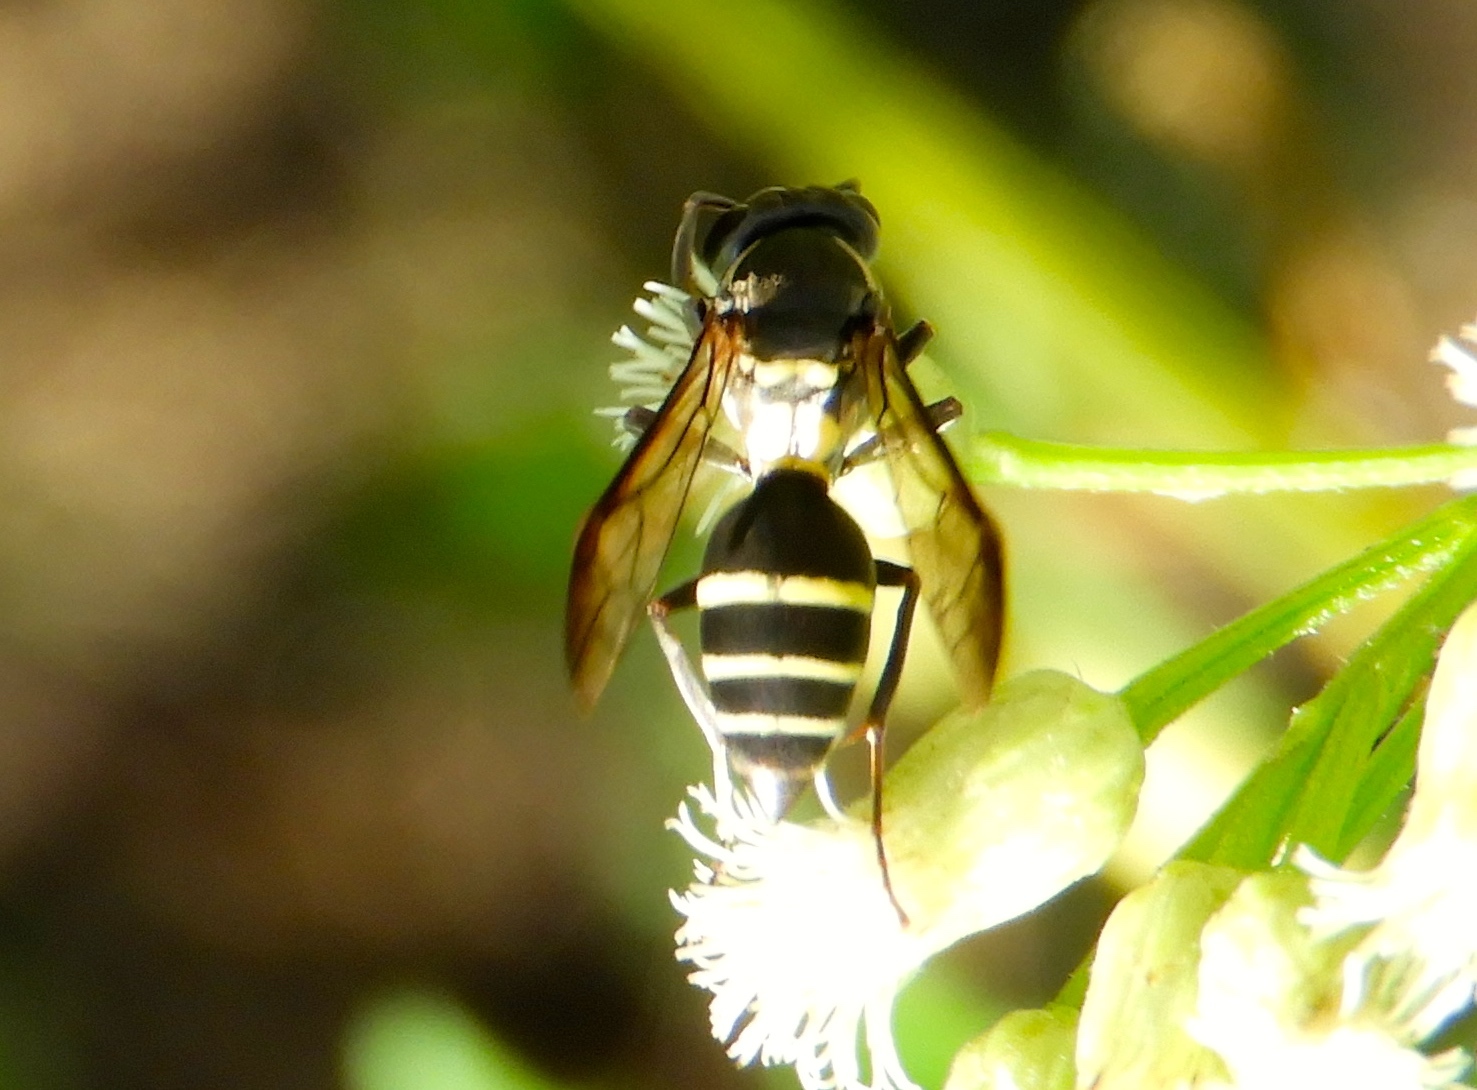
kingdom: Animalia
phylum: Arthropoda
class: Insecta
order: Hymenoptera
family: Vespidae
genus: Myrapetra
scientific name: Myrapetra
